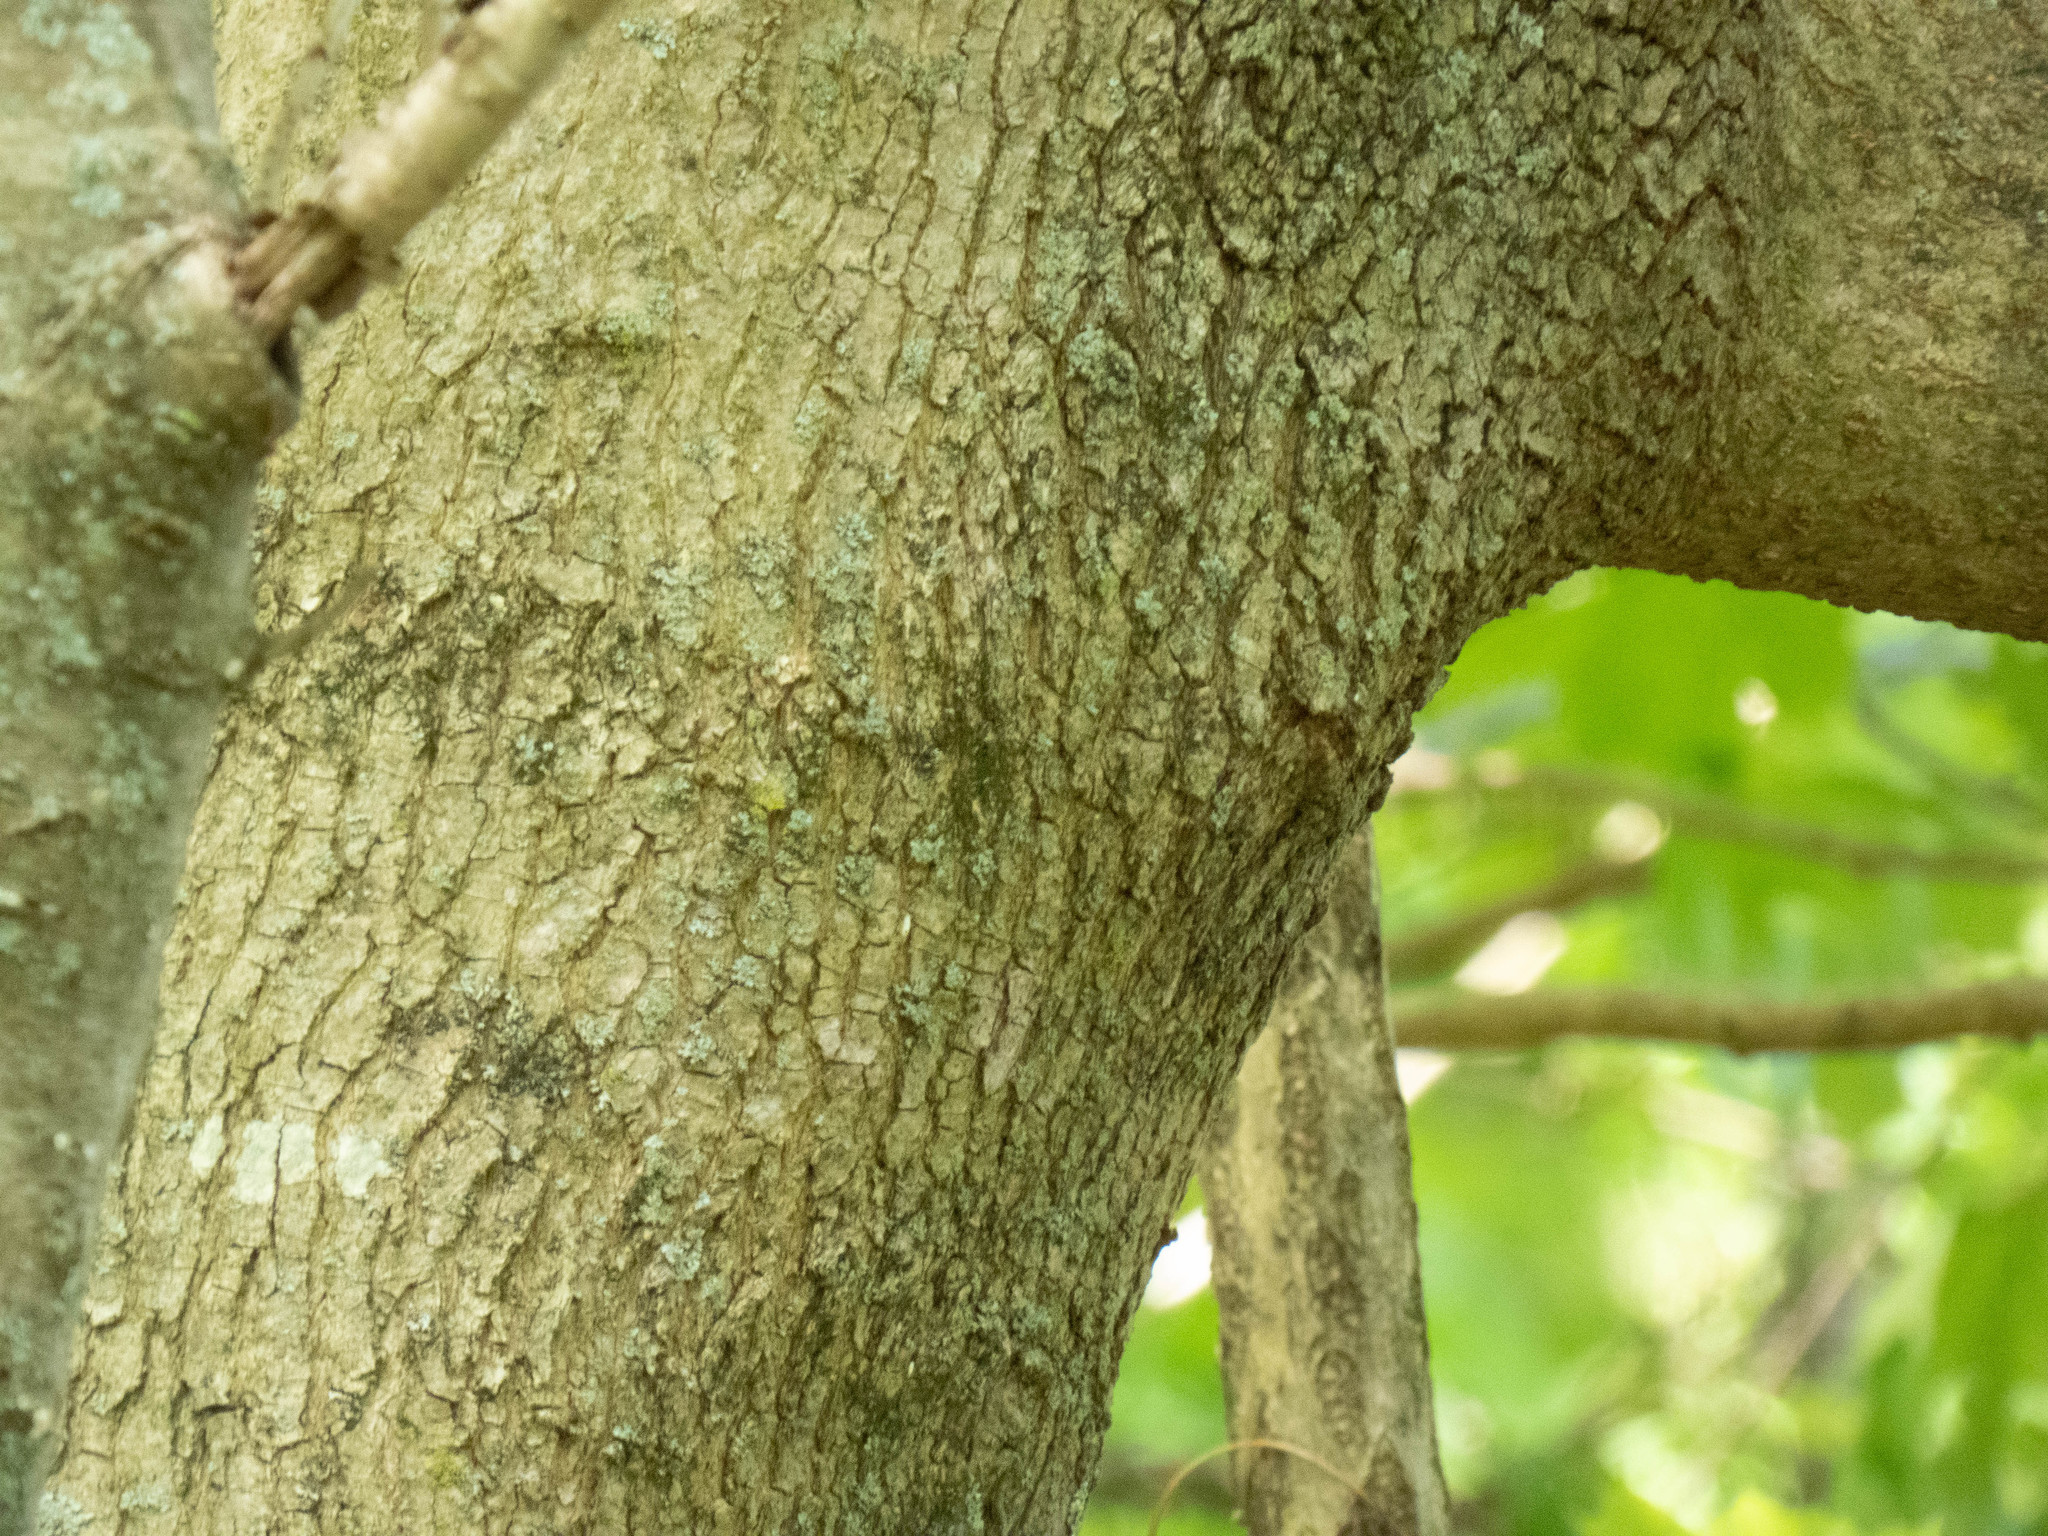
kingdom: Plantae
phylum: Tracheophyta
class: Magnoliopsida
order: Sapindales
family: Sapindaceae
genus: Acer
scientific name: Acer platanoides
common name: Norway maple
